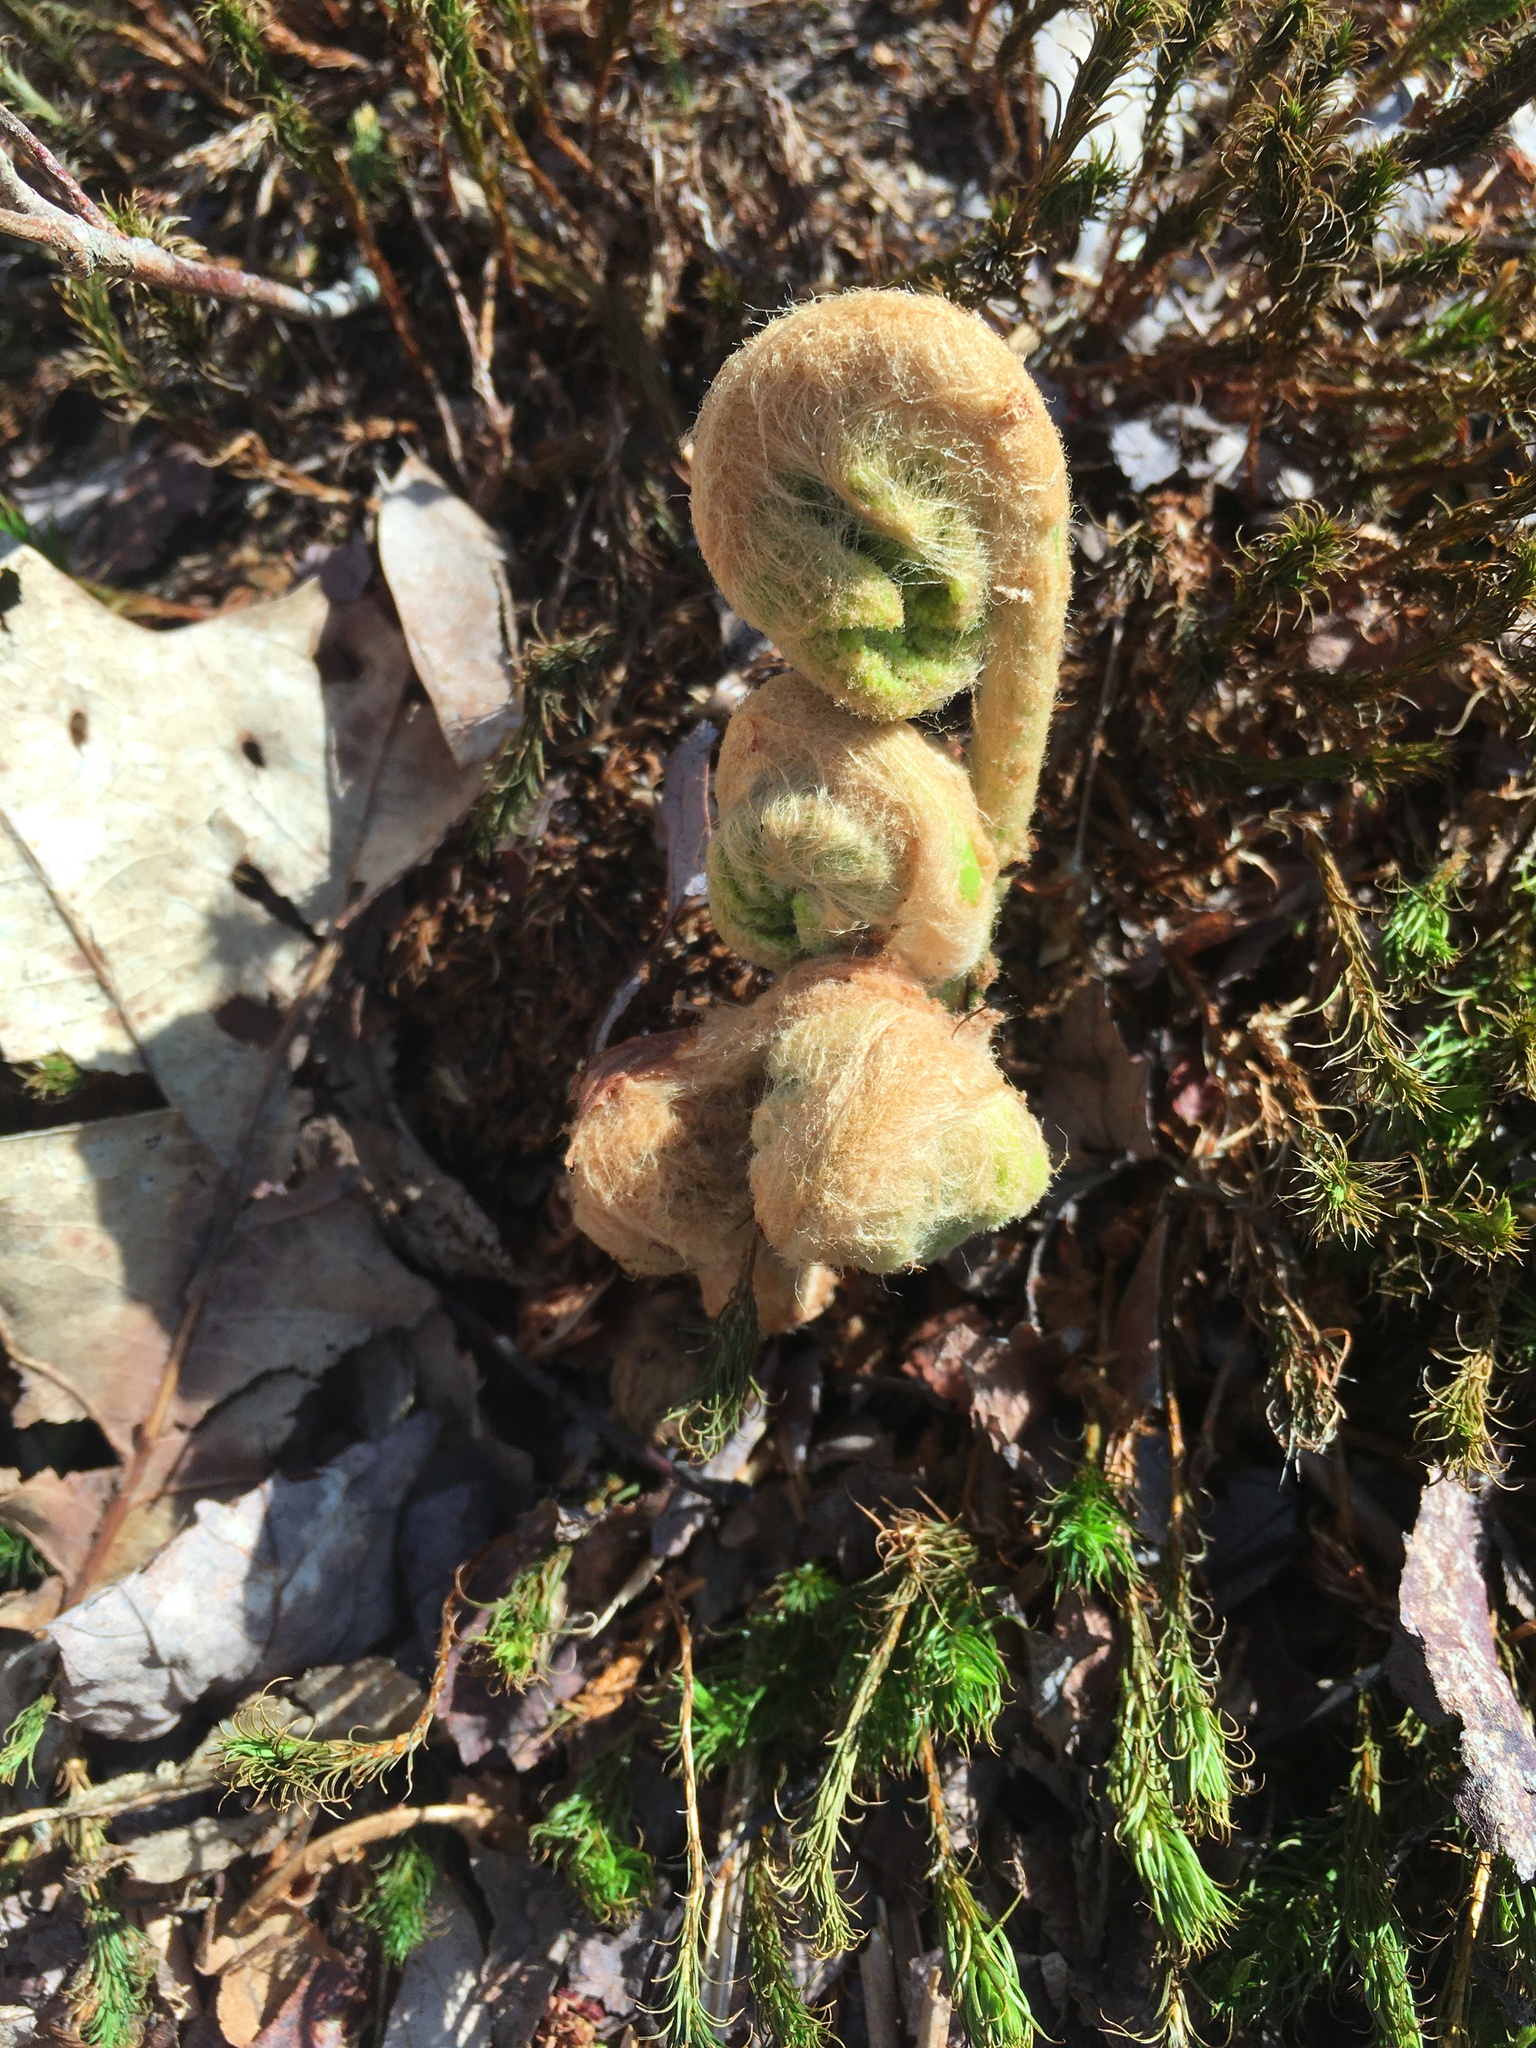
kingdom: Plantae
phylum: Tracheophyta
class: Polypodiopsida
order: Osmundales
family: Osmundaceae
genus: Osmundastrum
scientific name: Osmundastrum cinnamomeum
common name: Cinnamon fern
